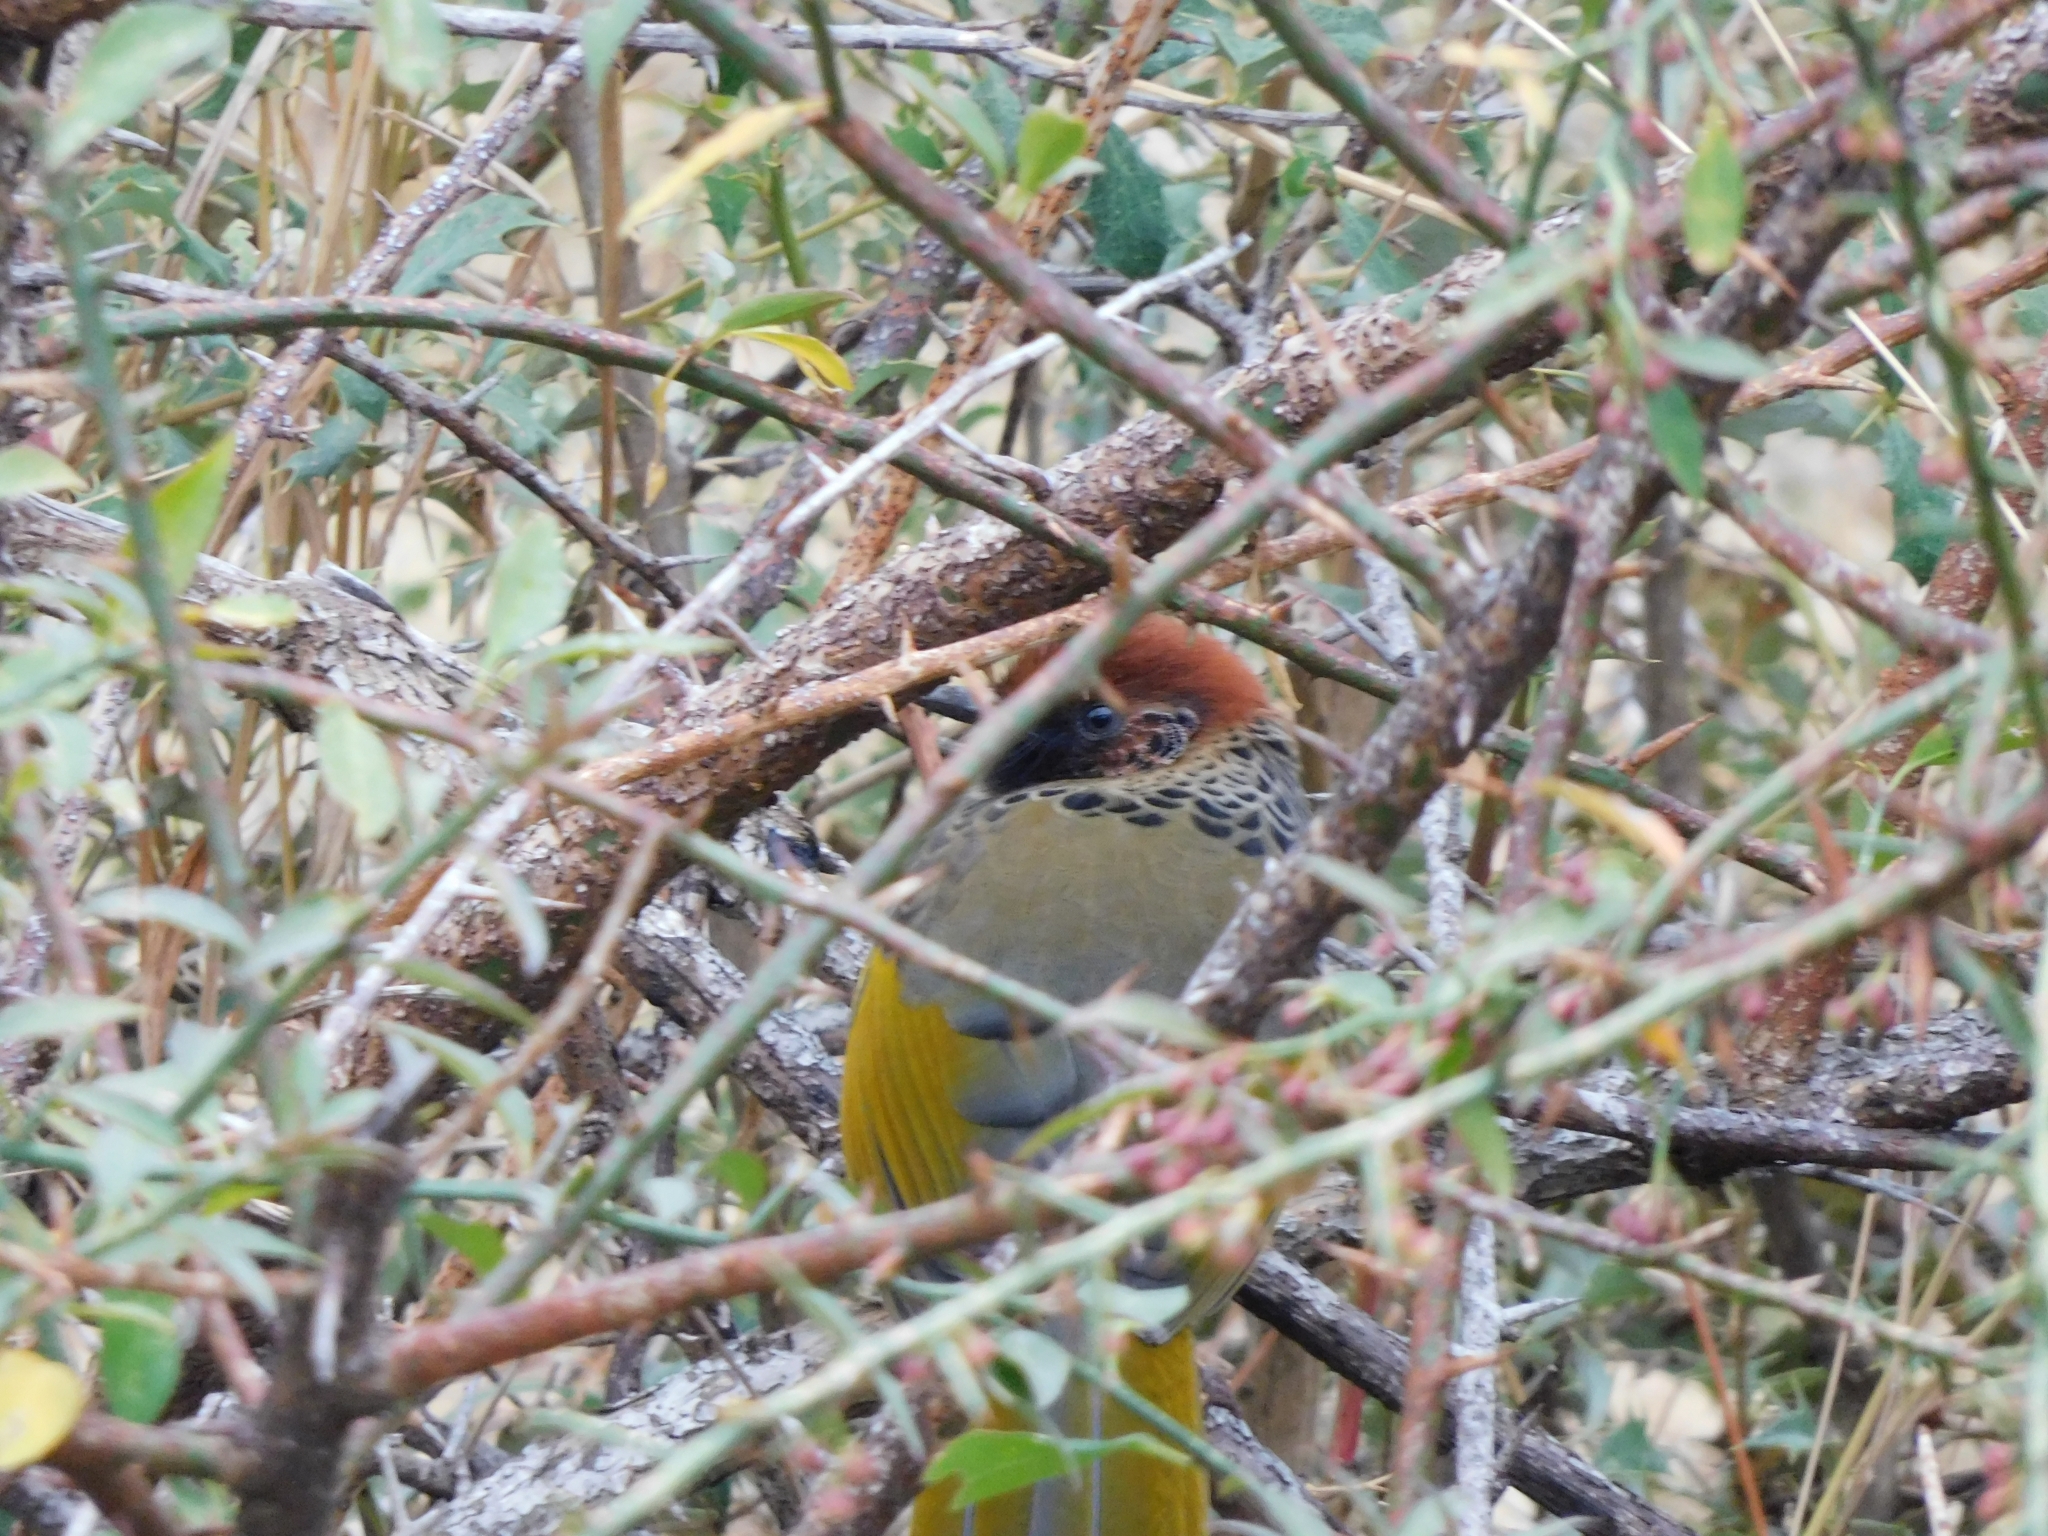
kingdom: Animalia
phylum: Chordata
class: Aves
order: Passeriformes
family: Leiothrichidae
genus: Trochalopteron
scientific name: Trochalopteron erythrocephalum
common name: Chestnut-crowned laughingthrush
